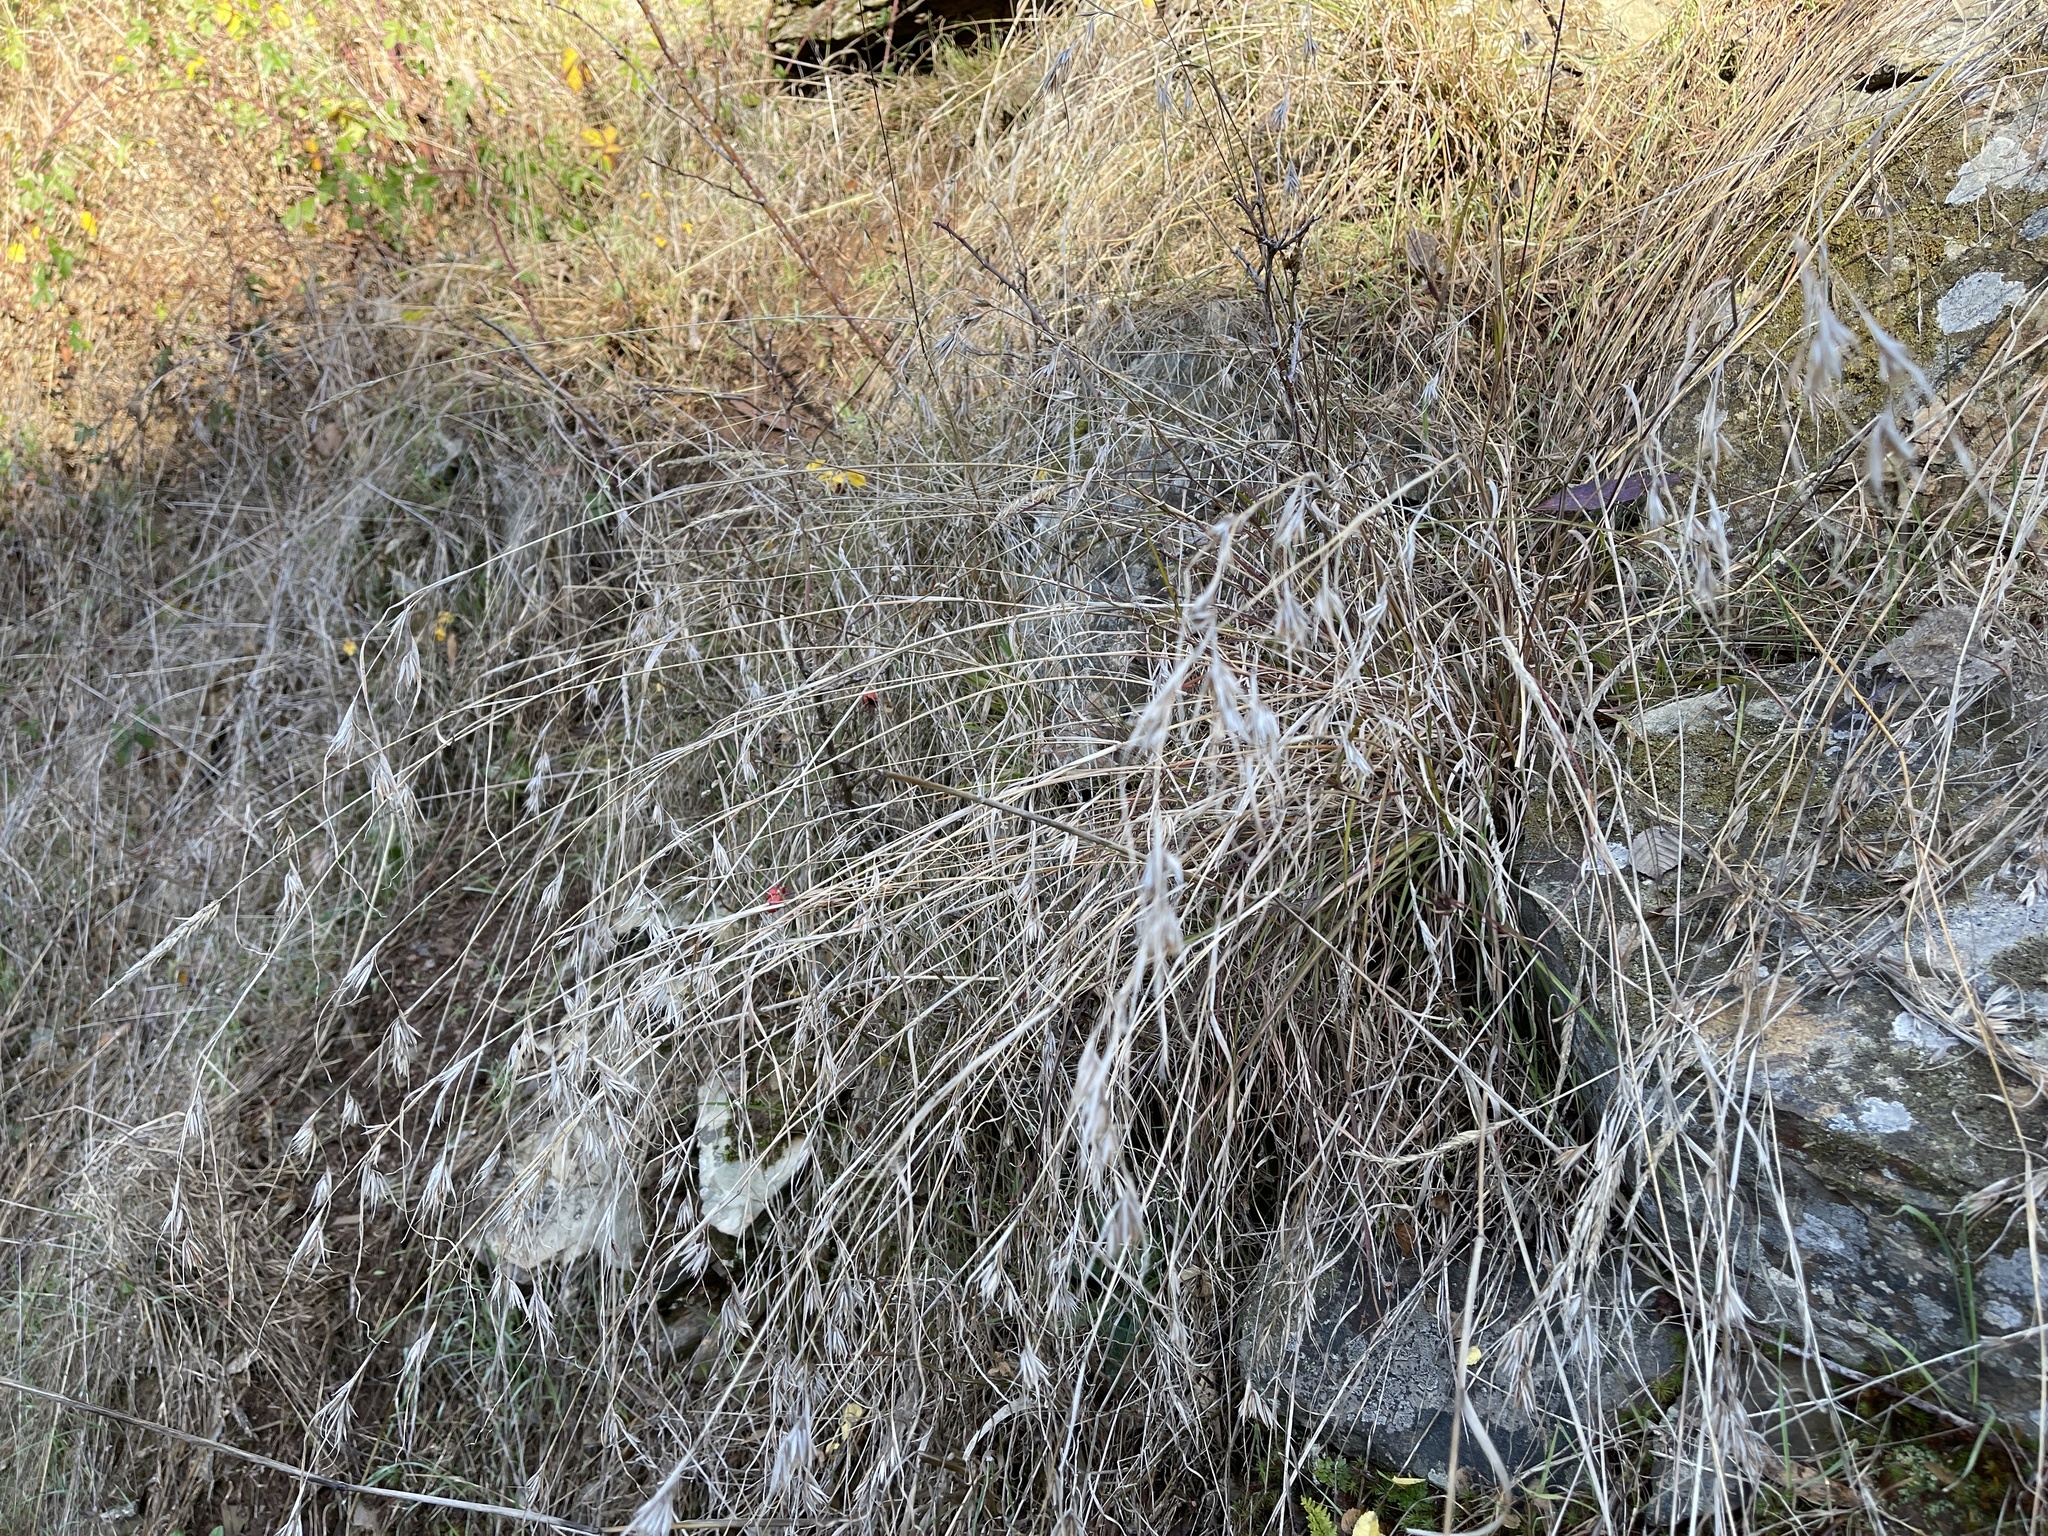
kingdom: Plantae
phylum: Tracheophyta
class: Liliopsida
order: Poales
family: Poaceae
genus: Themeda
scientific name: Themeda triandra
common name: Kangaroo grass
